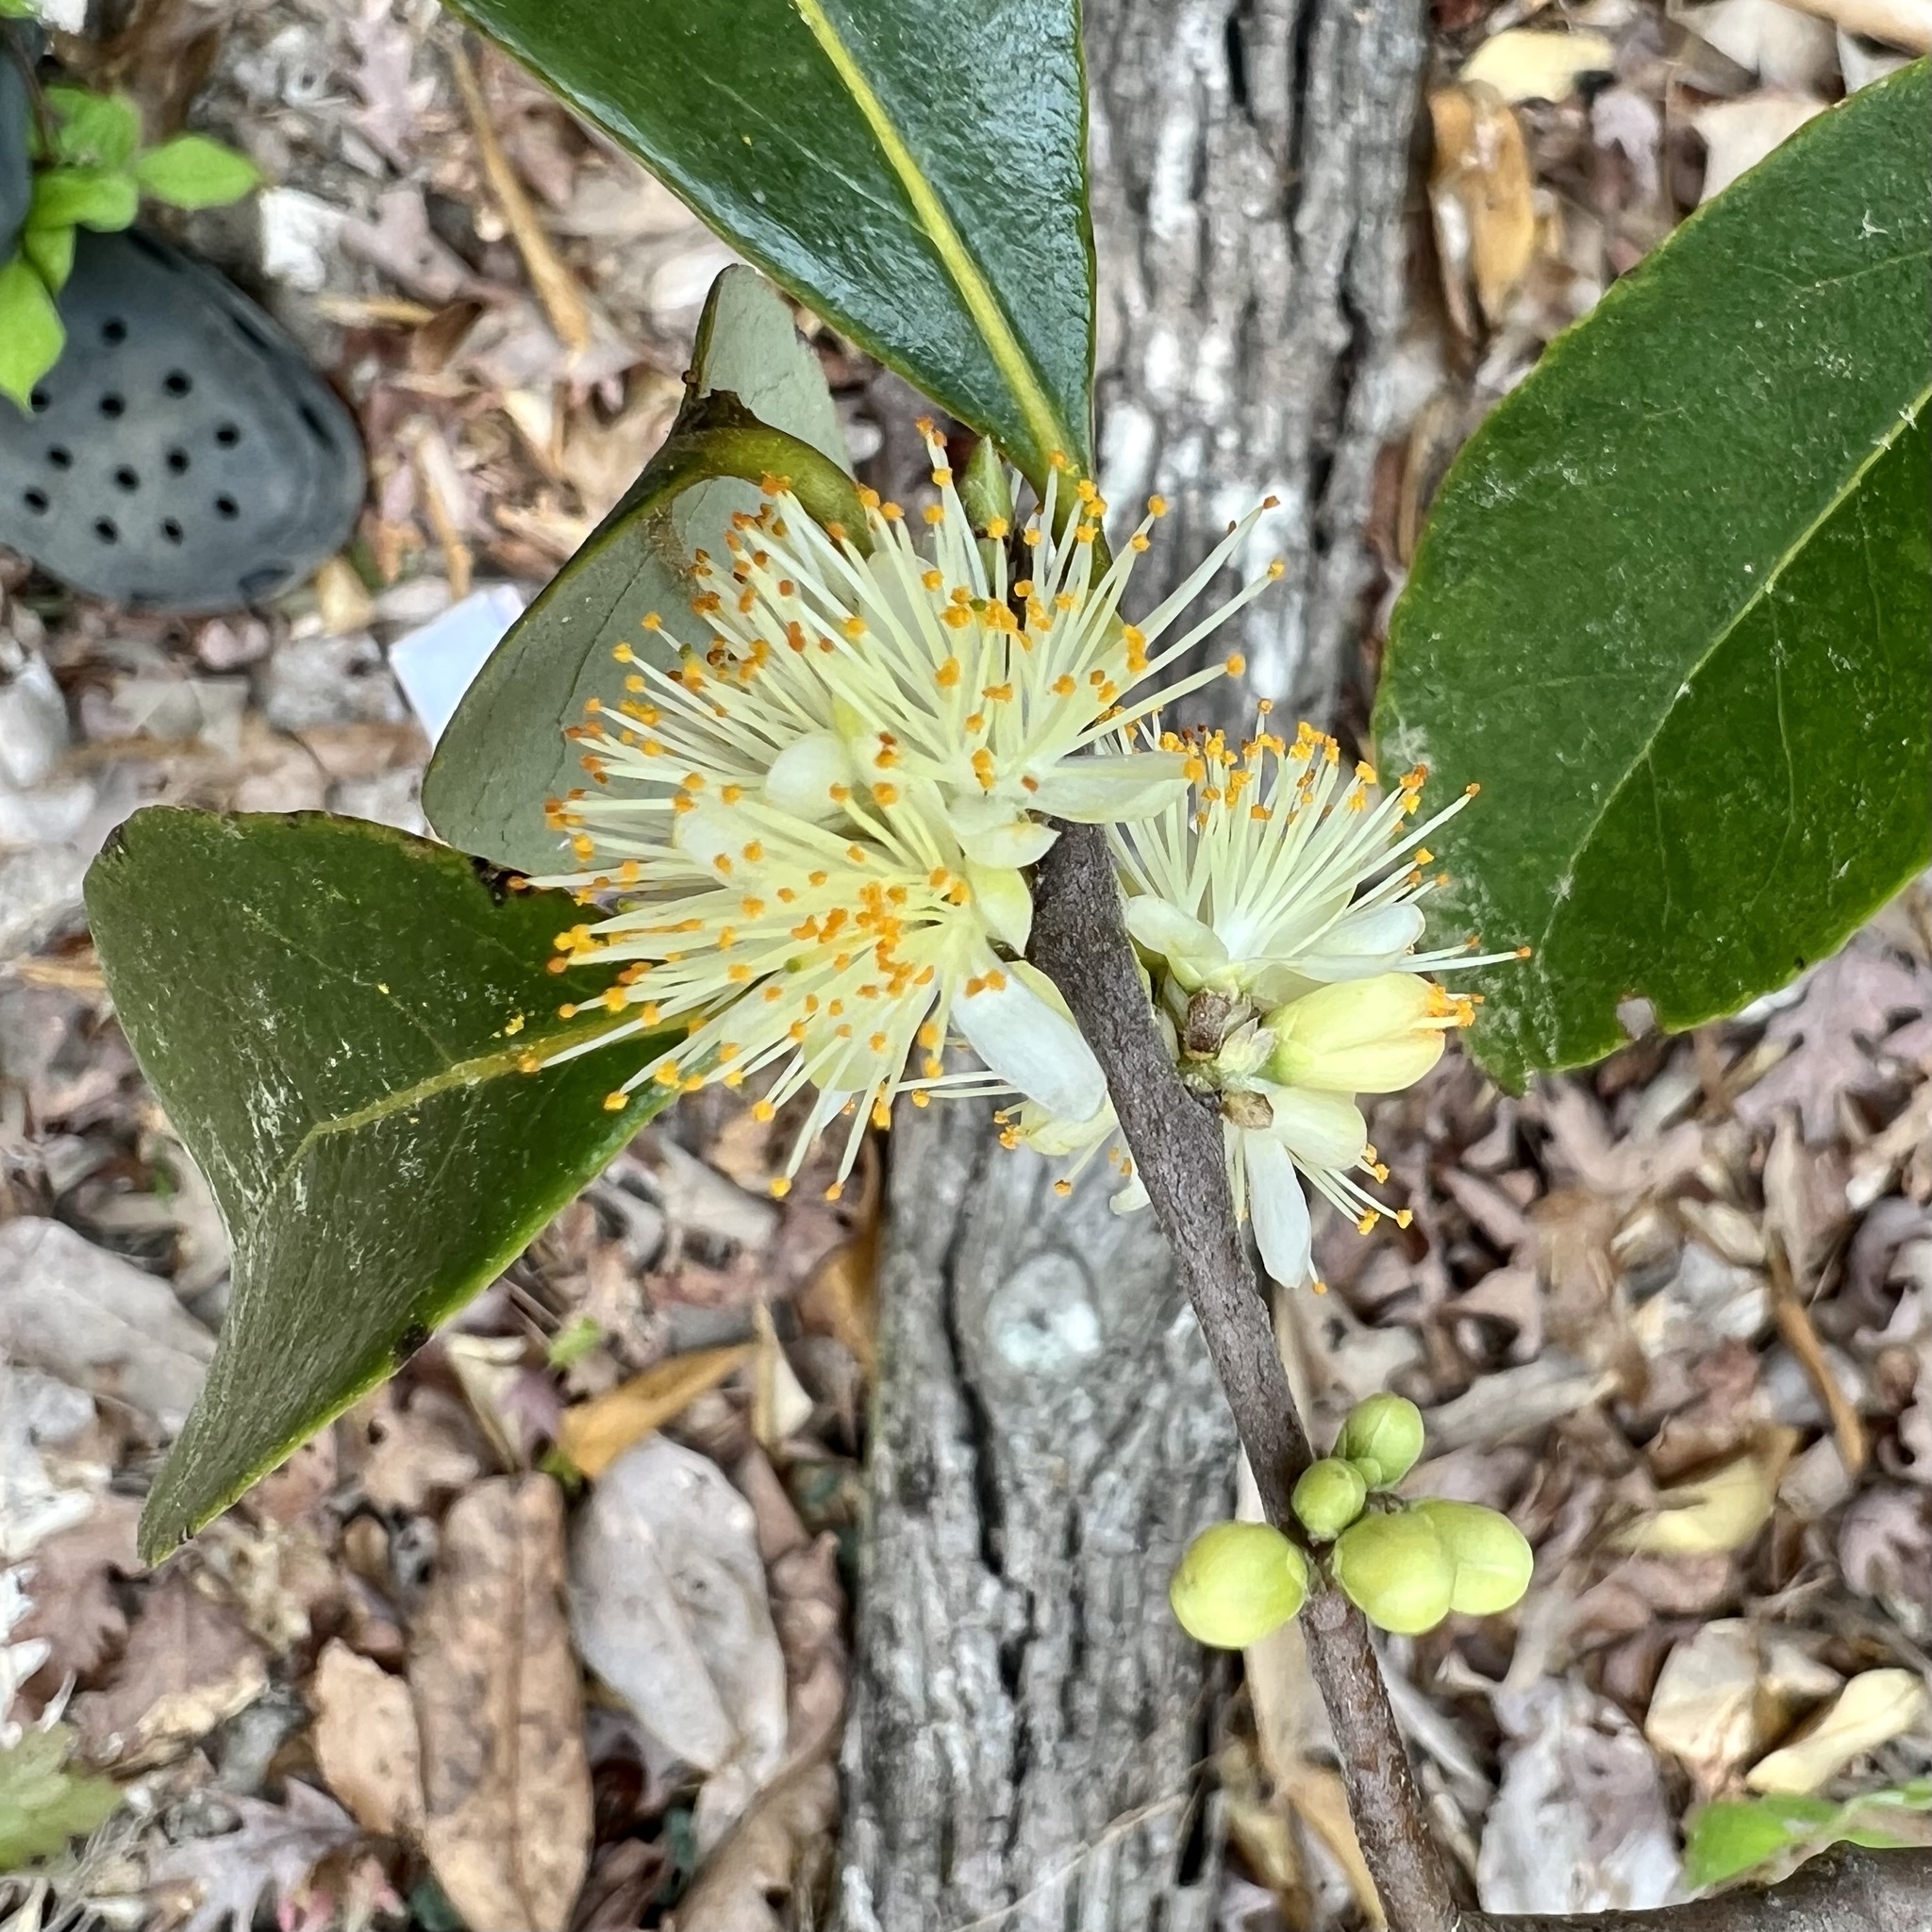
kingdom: Plantae
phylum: Tracheophyta
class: Magnoliopsida
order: Ericales
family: Symplocaceae
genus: Symplocos
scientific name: Symplocos tinctoria
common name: Horse-sugar
